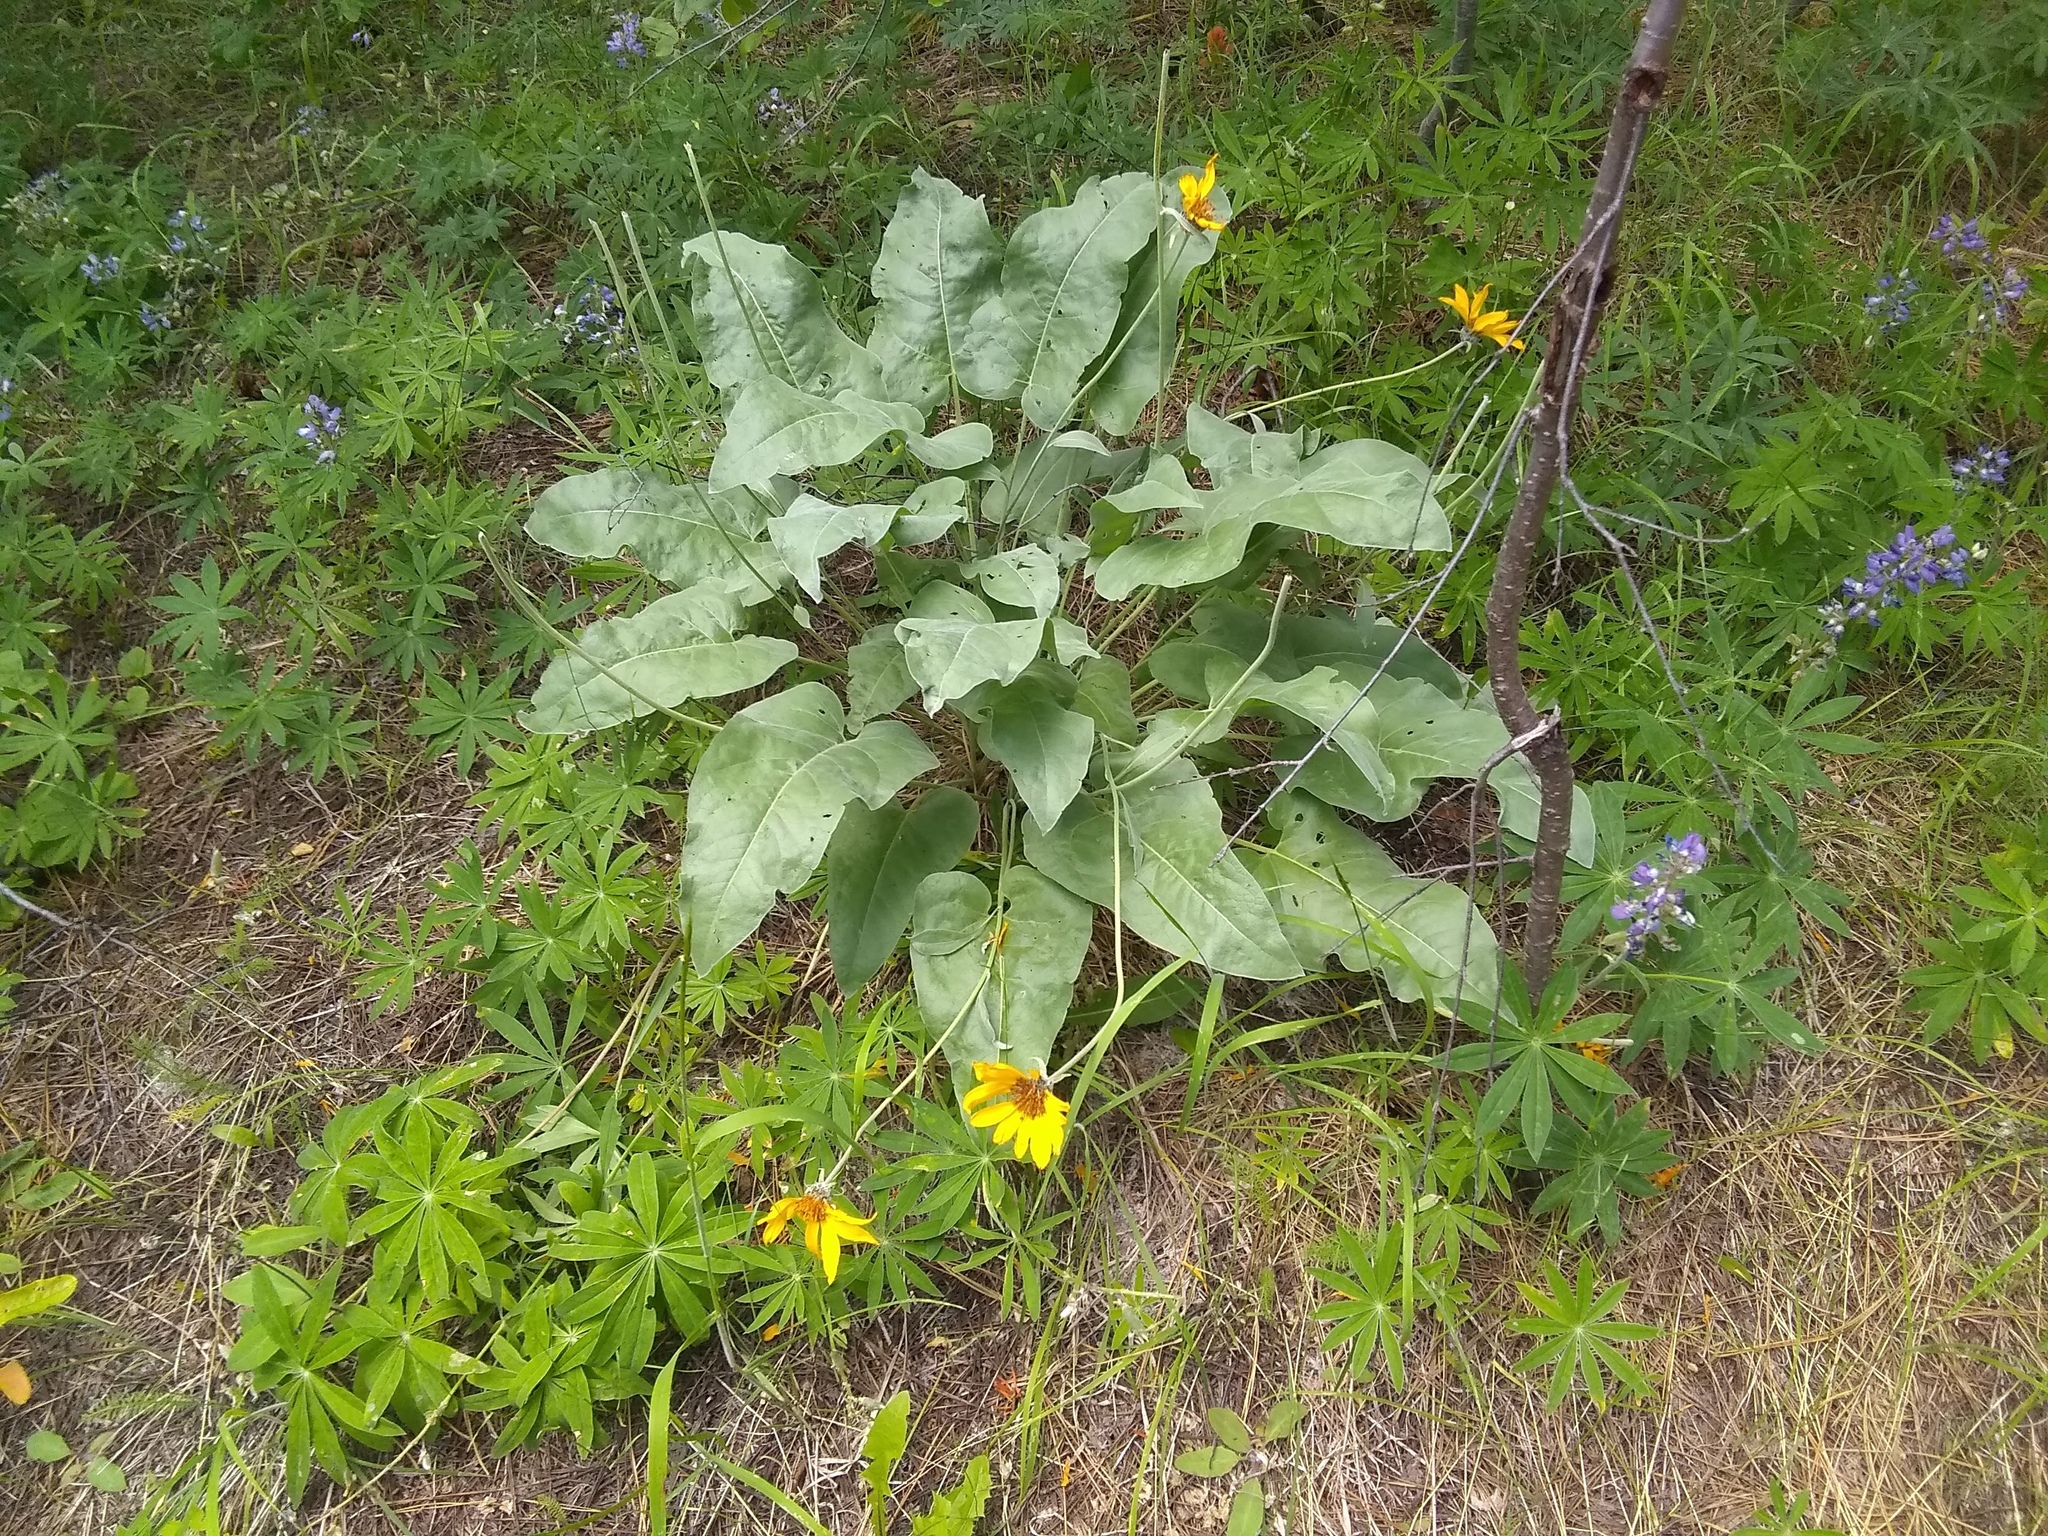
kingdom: Plantae
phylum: Tracheophyta
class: Magnoliopsida
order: Asterales
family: Asteraceae
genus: Wyethia
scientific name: Wyethia sagittata
